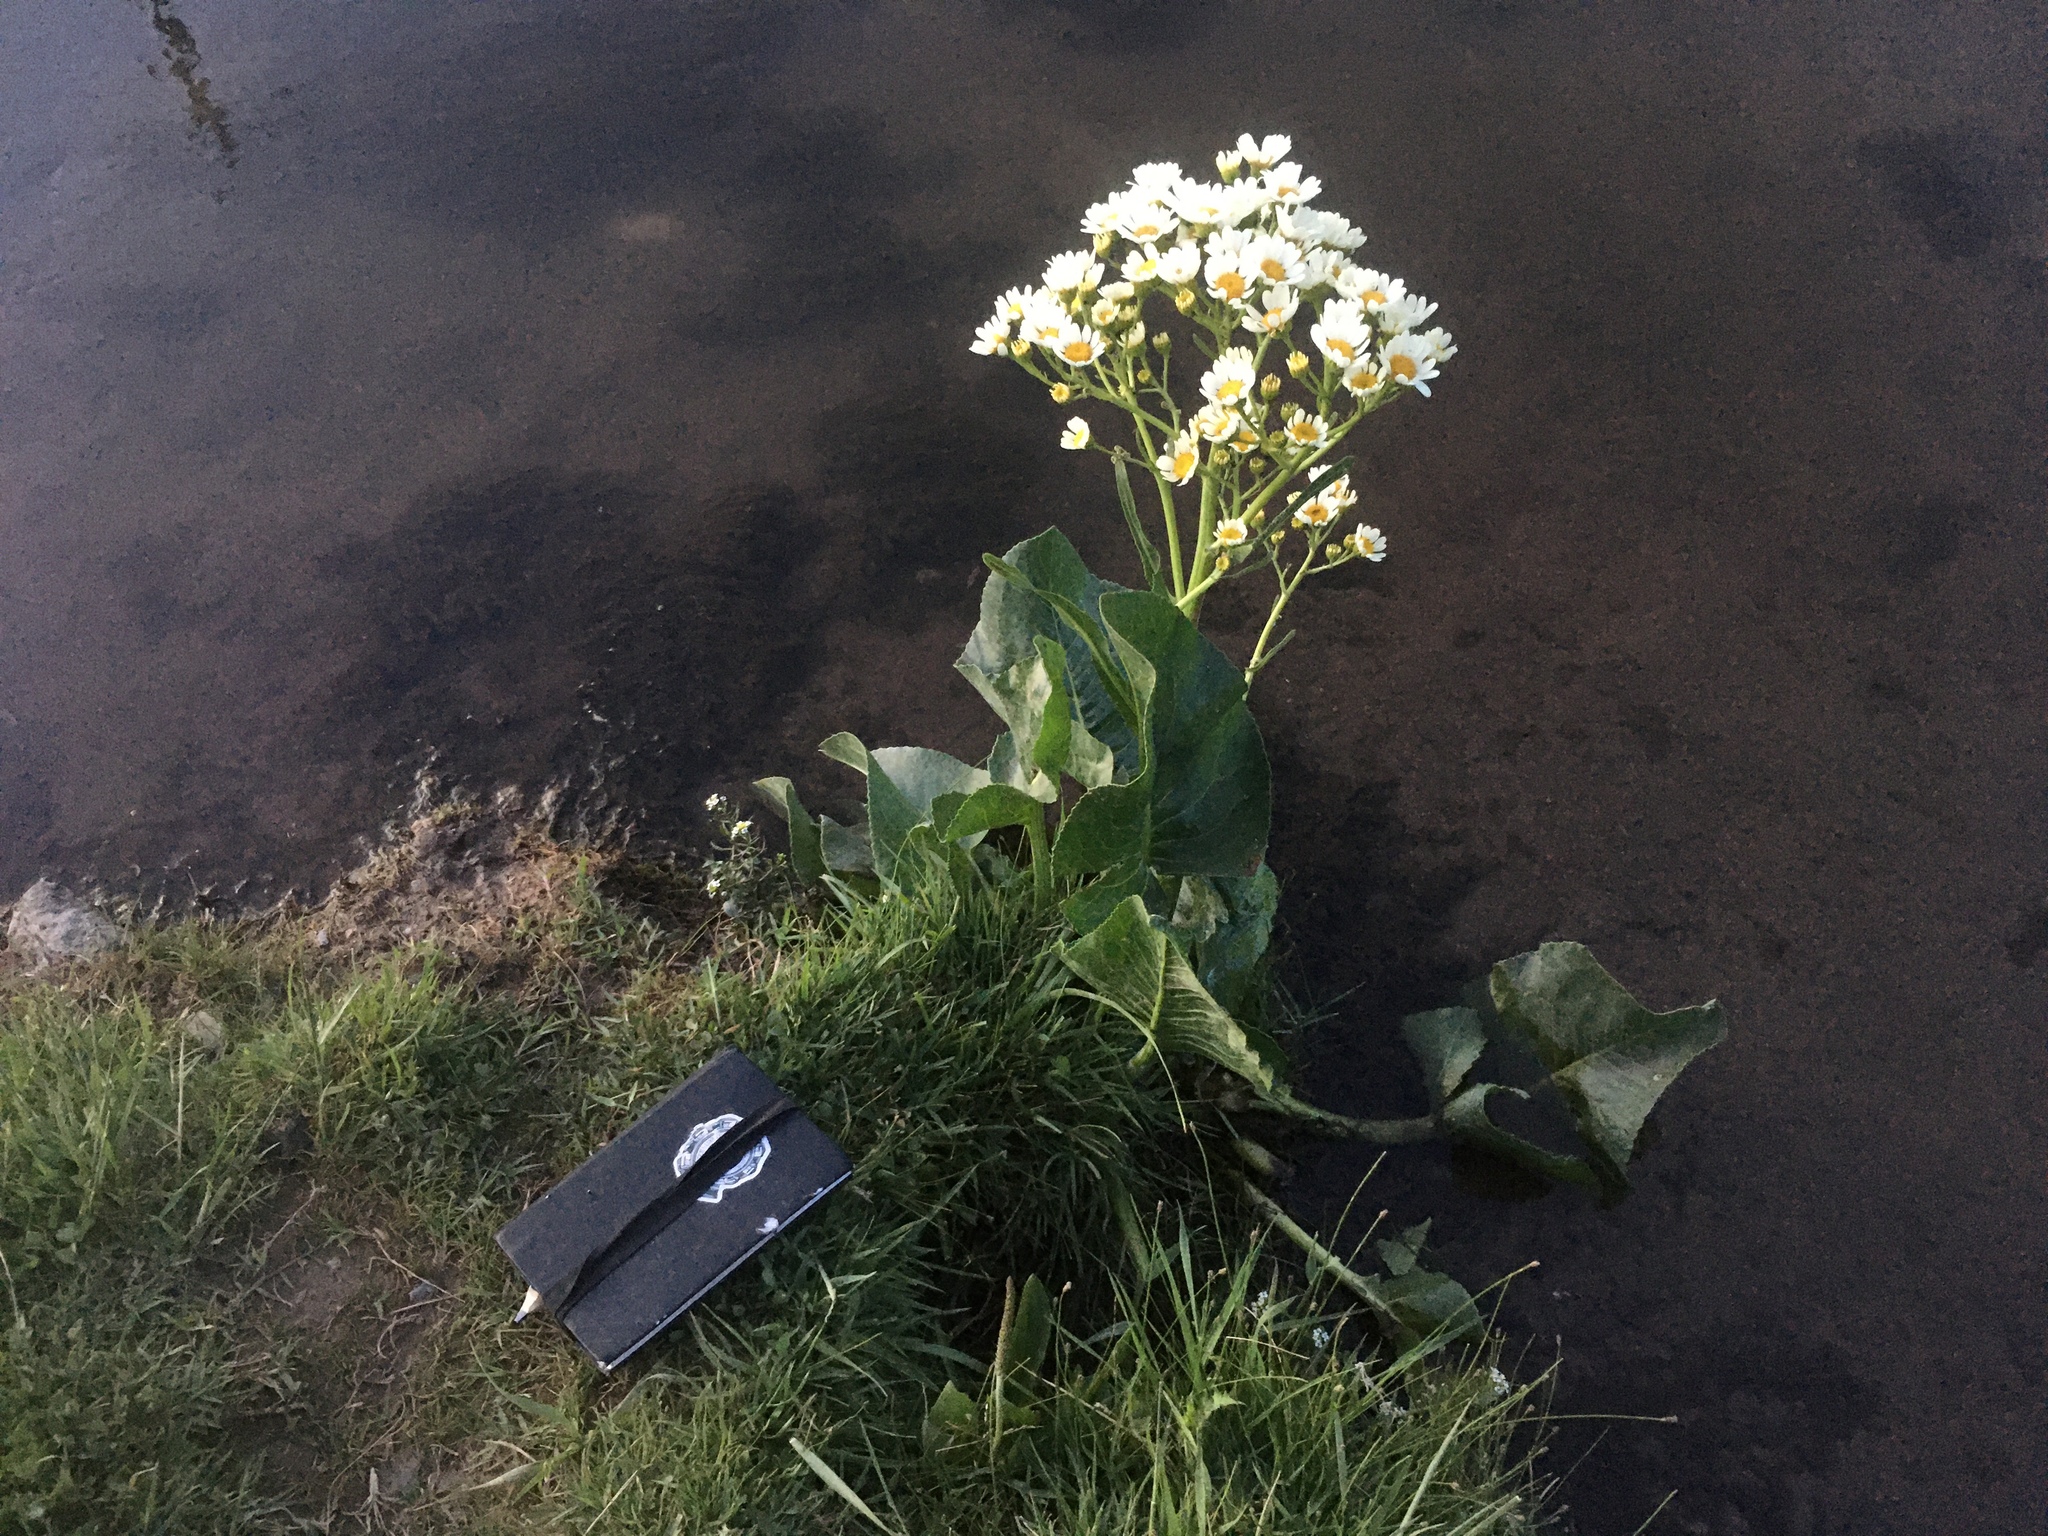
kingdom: Plantae
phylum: Tracheophyta
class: Magnoliopsida
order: Asterales
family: Asteraceae
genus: Senecio
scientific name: Senecio bonariensis
